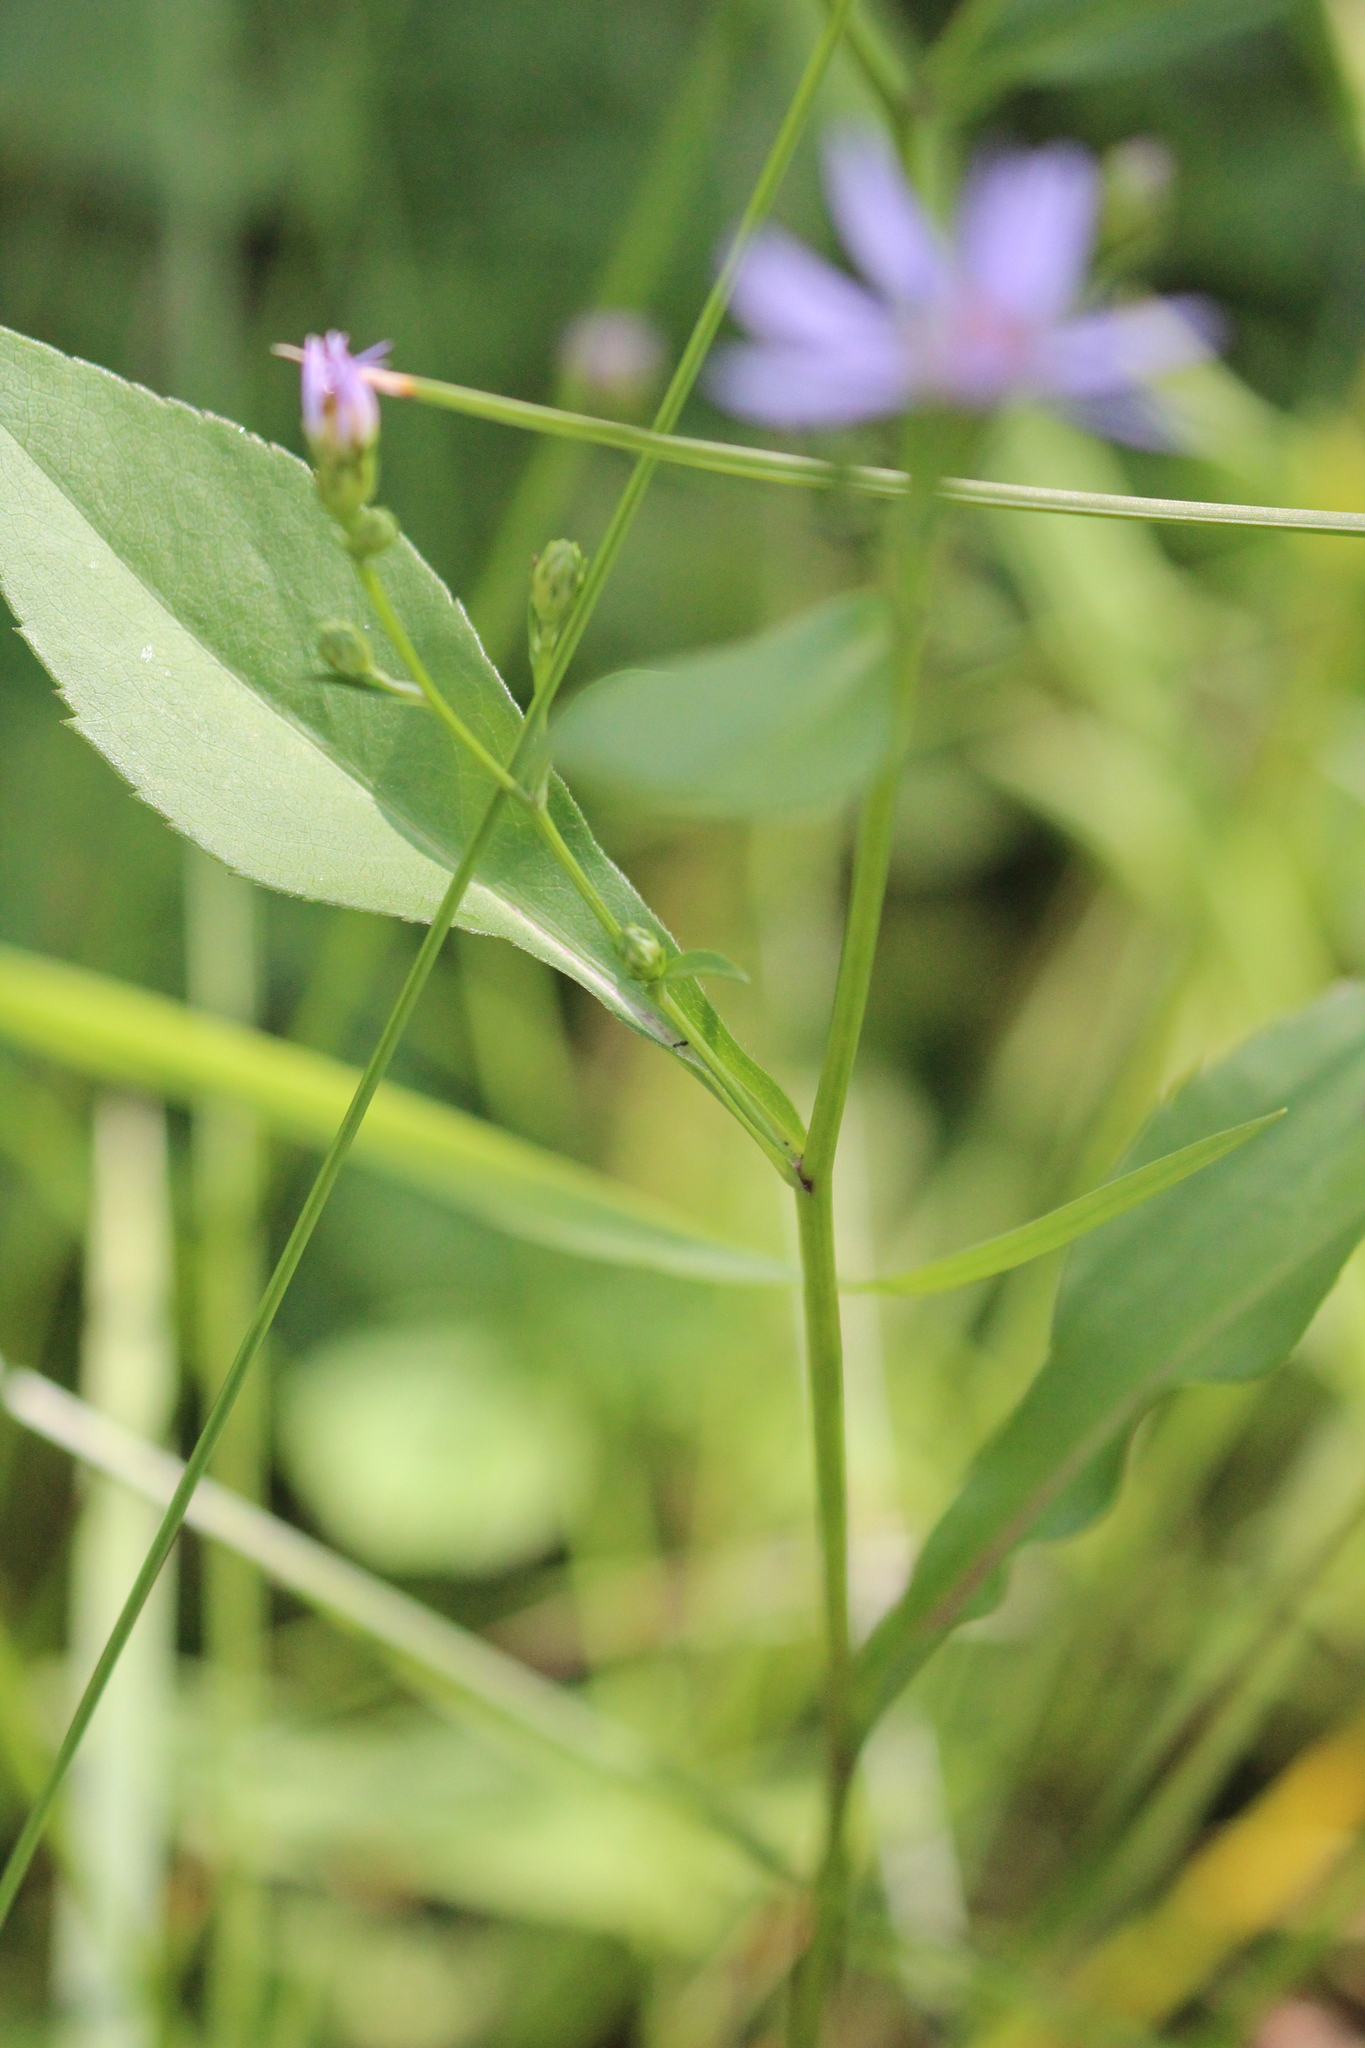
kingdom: Plantae
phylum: Tracheophyta
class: Magnoliopsida
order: Asterales
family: Asteraceae
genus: Symphyotrichum
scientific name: Symphyotrichum ciliolatum
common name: Fringed blue aster
